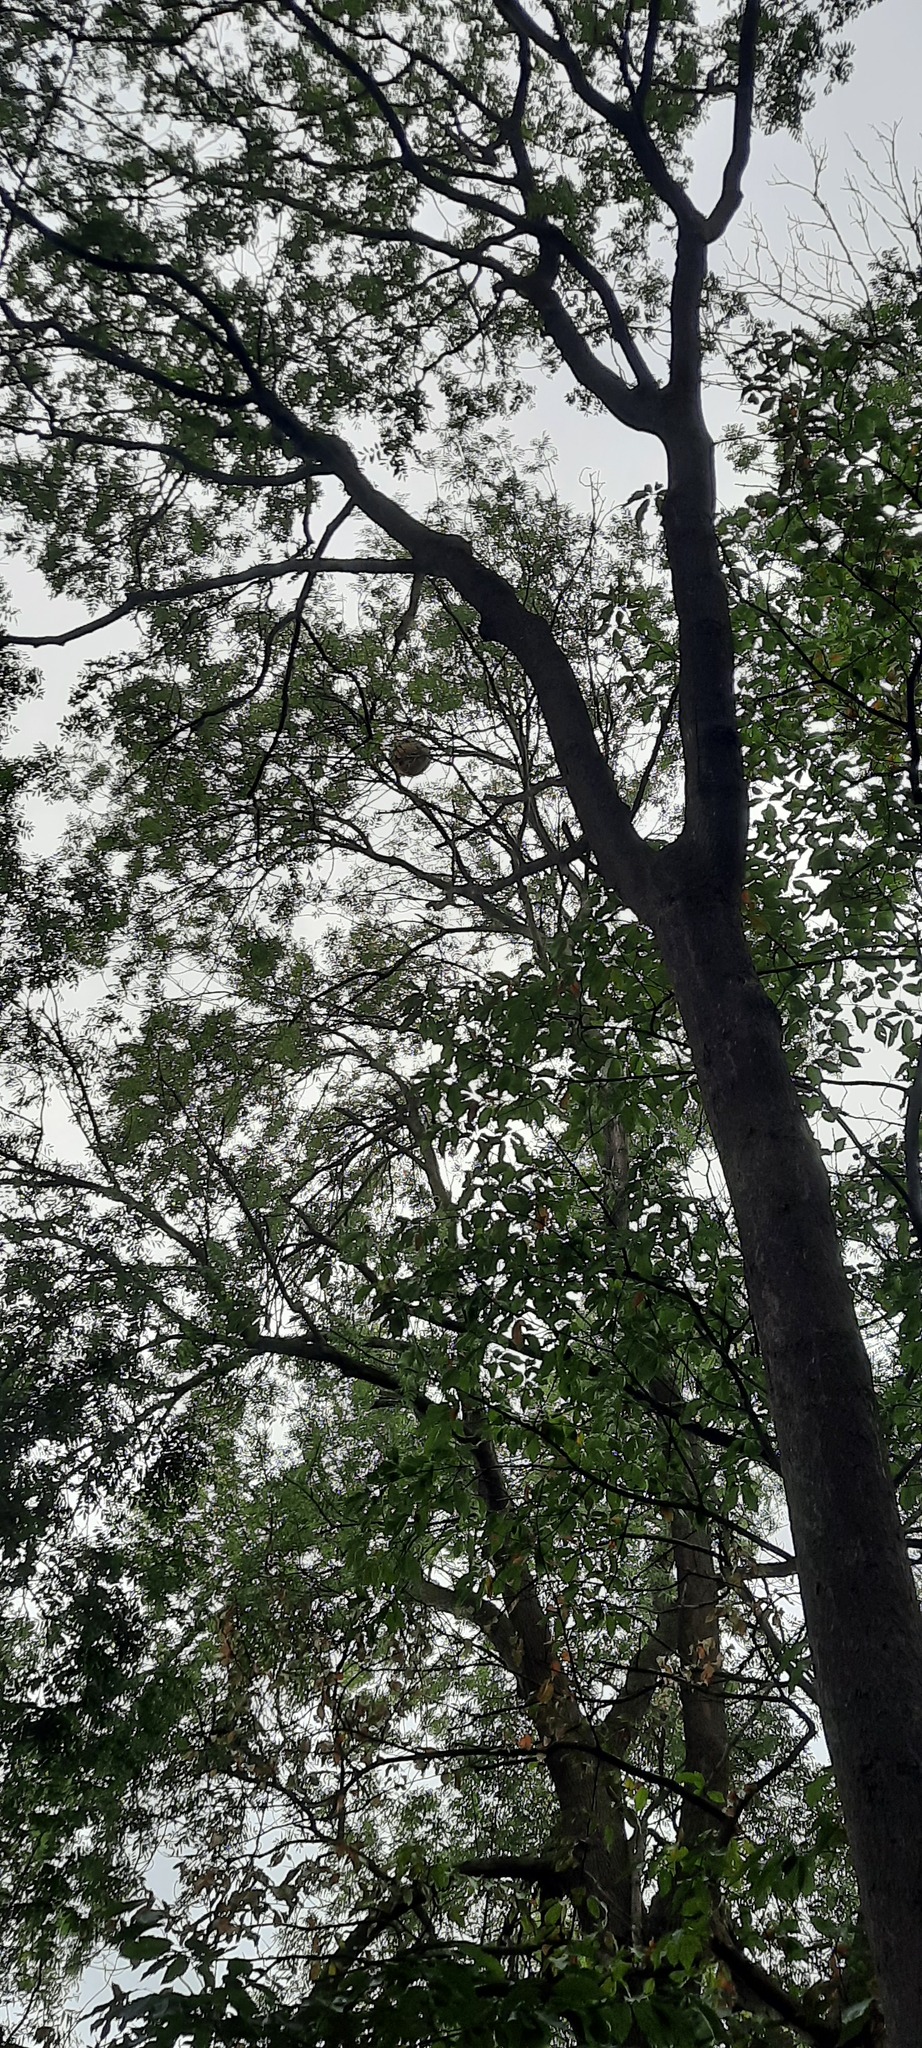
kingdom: Animalia
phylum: Arthropoda
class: Insecta
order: Hymenoptera
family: Vespidae
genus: Vespa
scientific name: Vespa velutina
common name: Asian hornet
